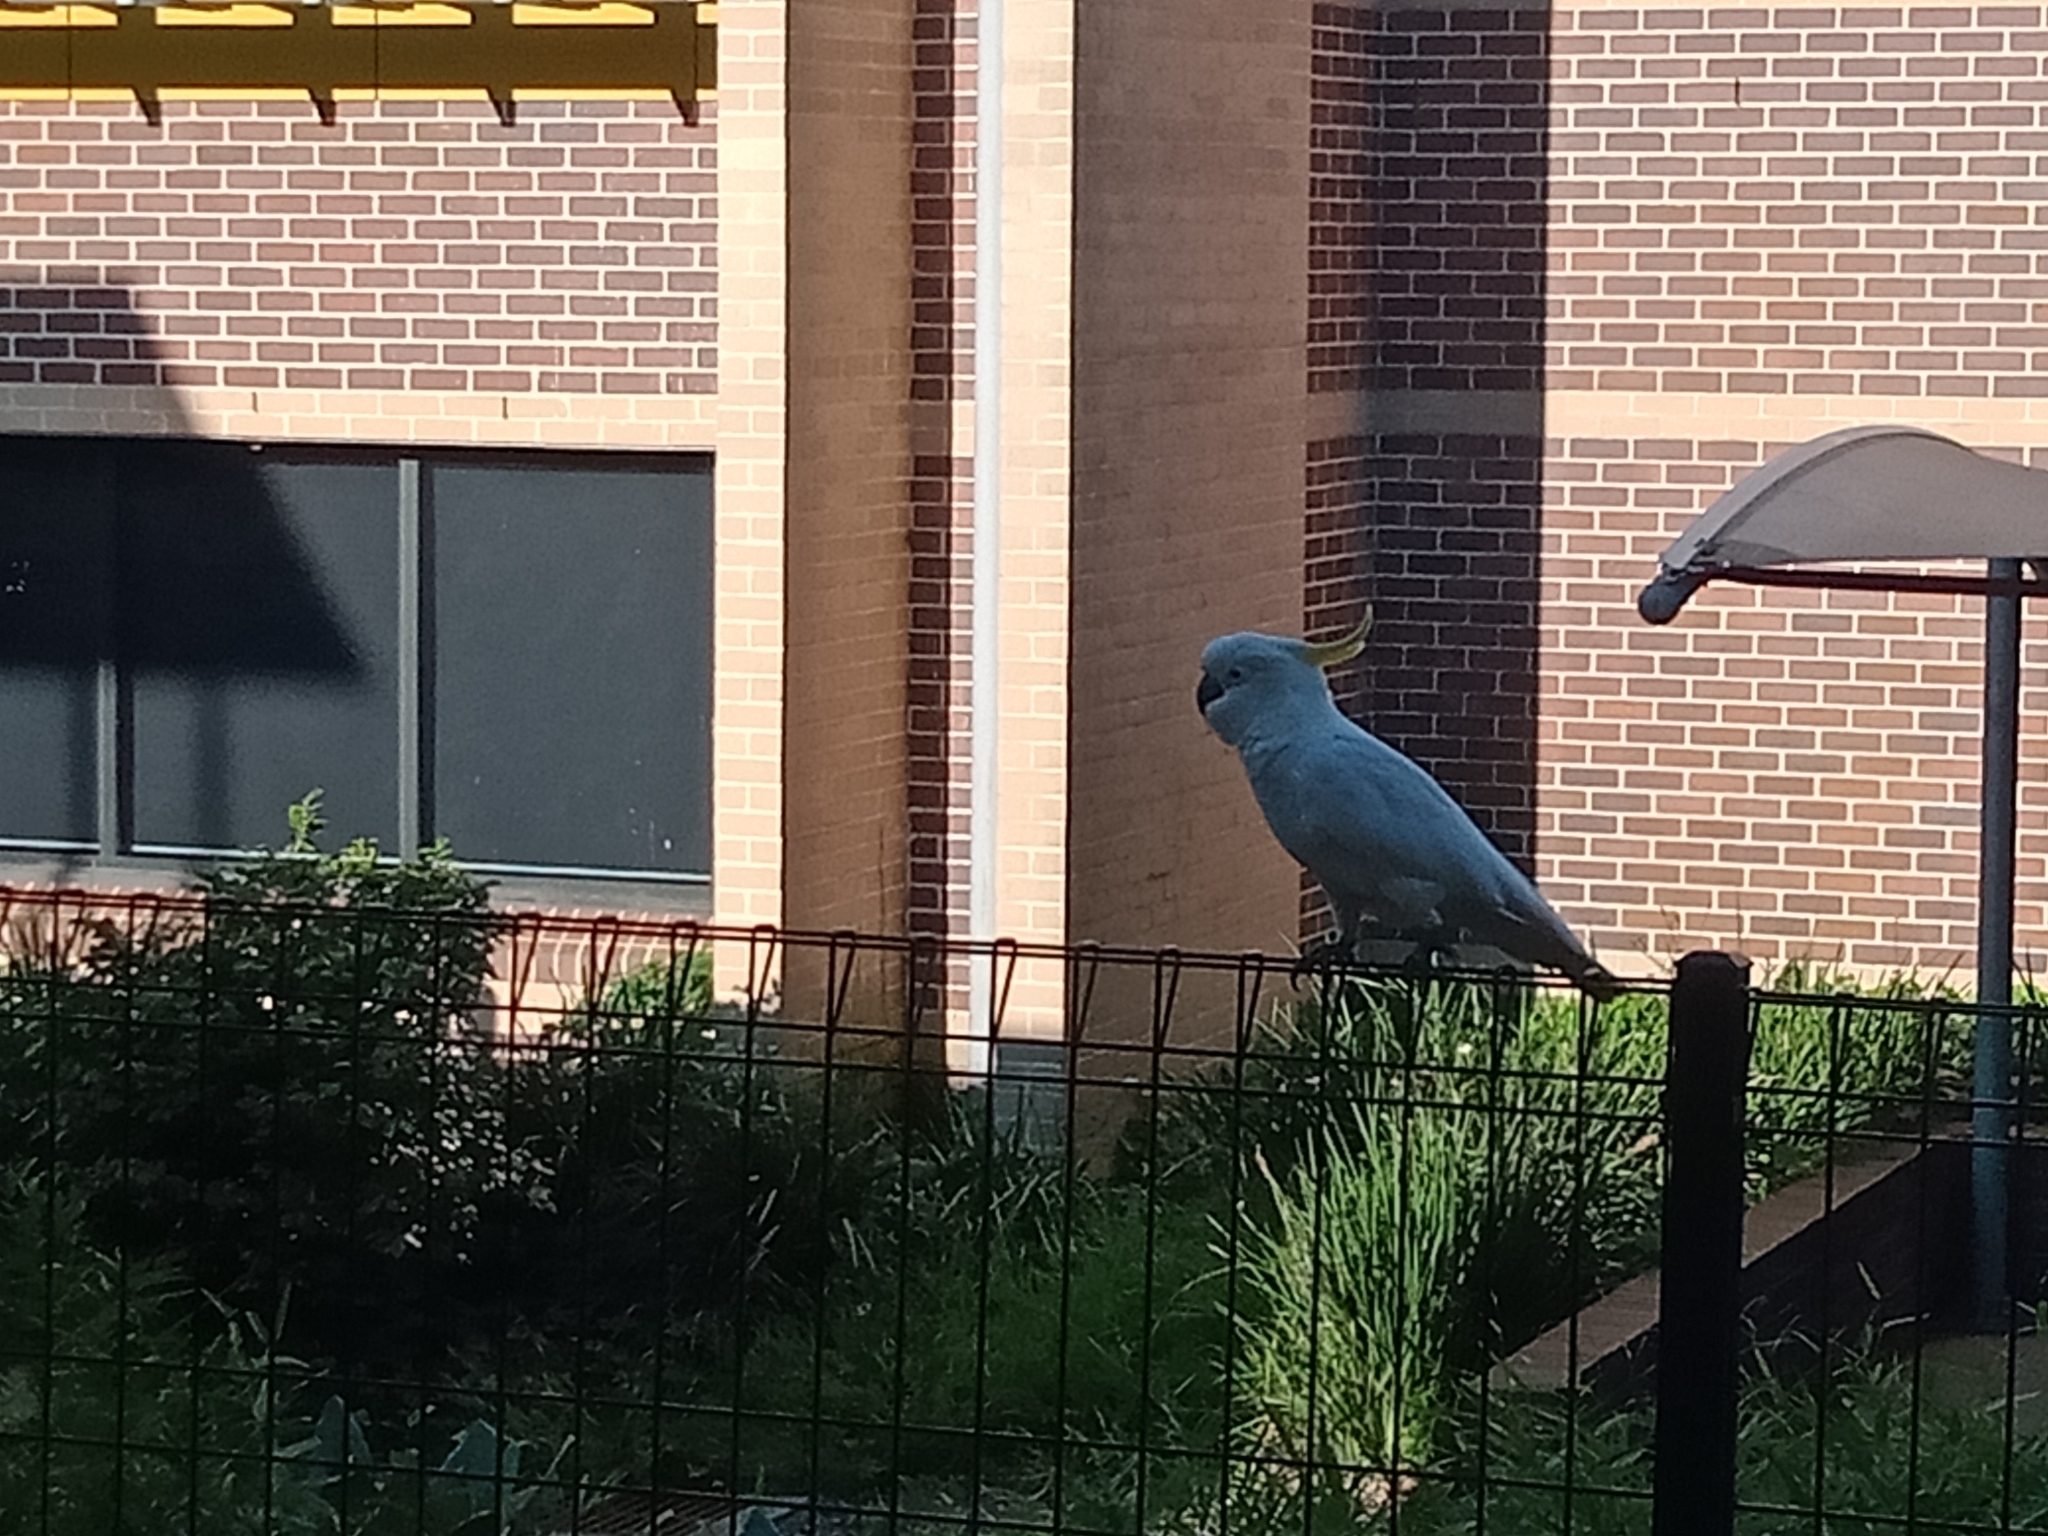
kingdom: Animalia
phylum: Chordata
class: Aves
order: Psittaciformes
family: Psittacidae
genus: Cacatua
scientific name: Cacatua galerita
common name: Sulphur-crested cockatoo
